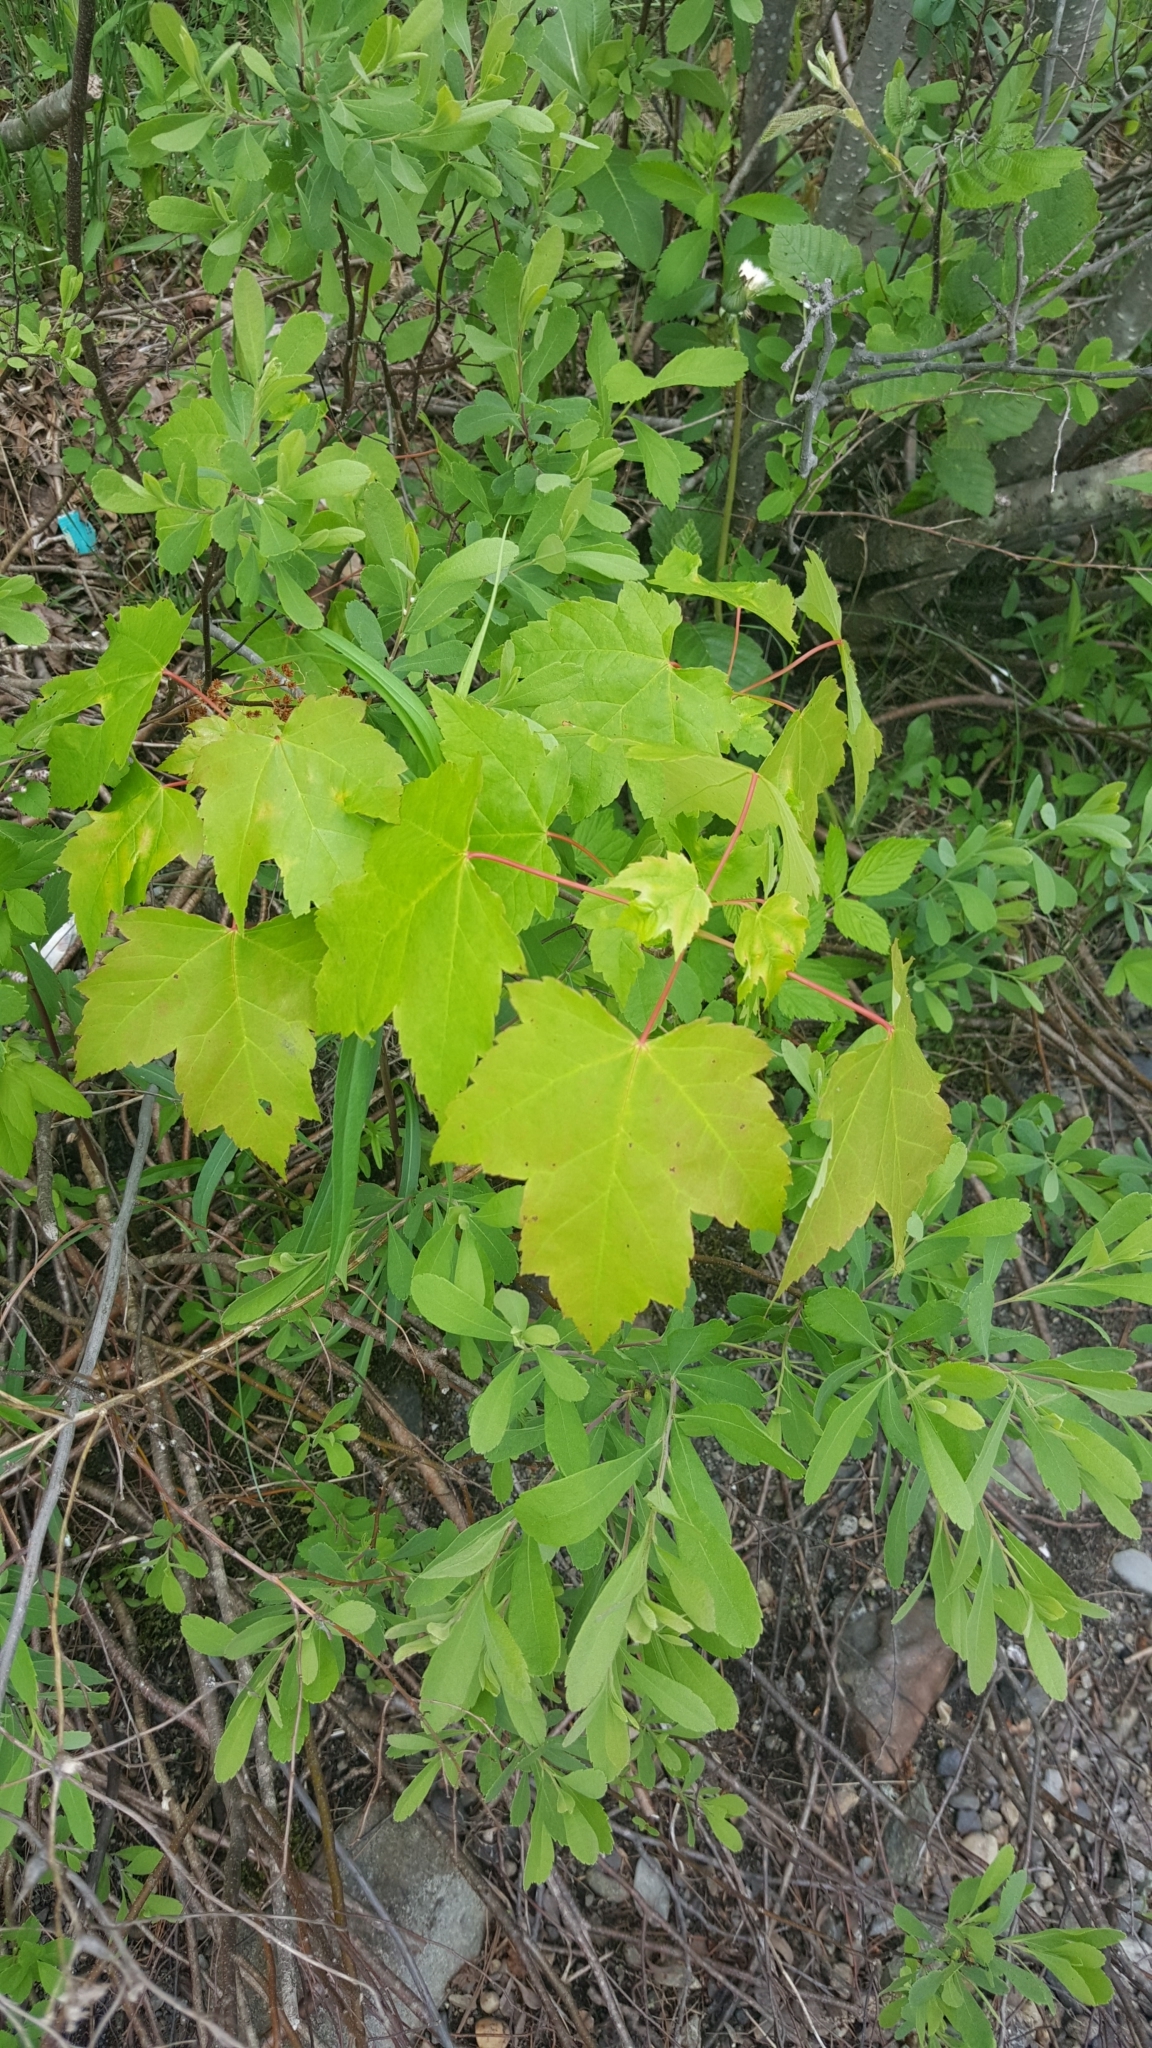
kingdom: Plantae
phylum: Tracheophyta
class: Magnoliopsida
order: Sapindales
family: Sapindaceae
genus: Acer
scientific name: Acer rubrum
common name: Red maple
